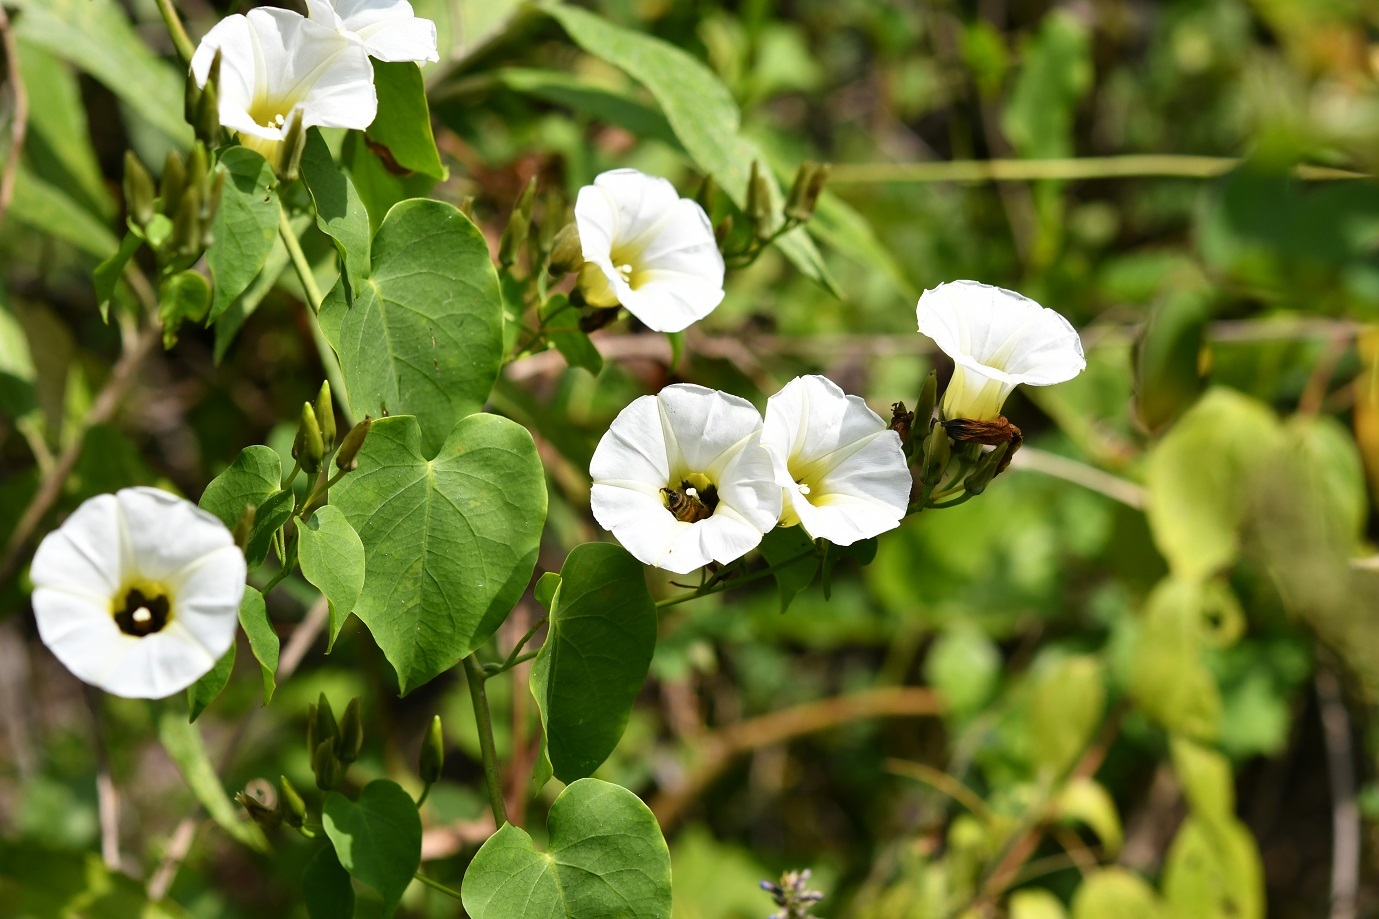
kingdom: Plantae
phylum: Tracheophyta
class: Magnoliopsida
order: Solanales
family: Convolvulaceae
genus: Ipomoea
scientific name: Ipomoea corymbosa
